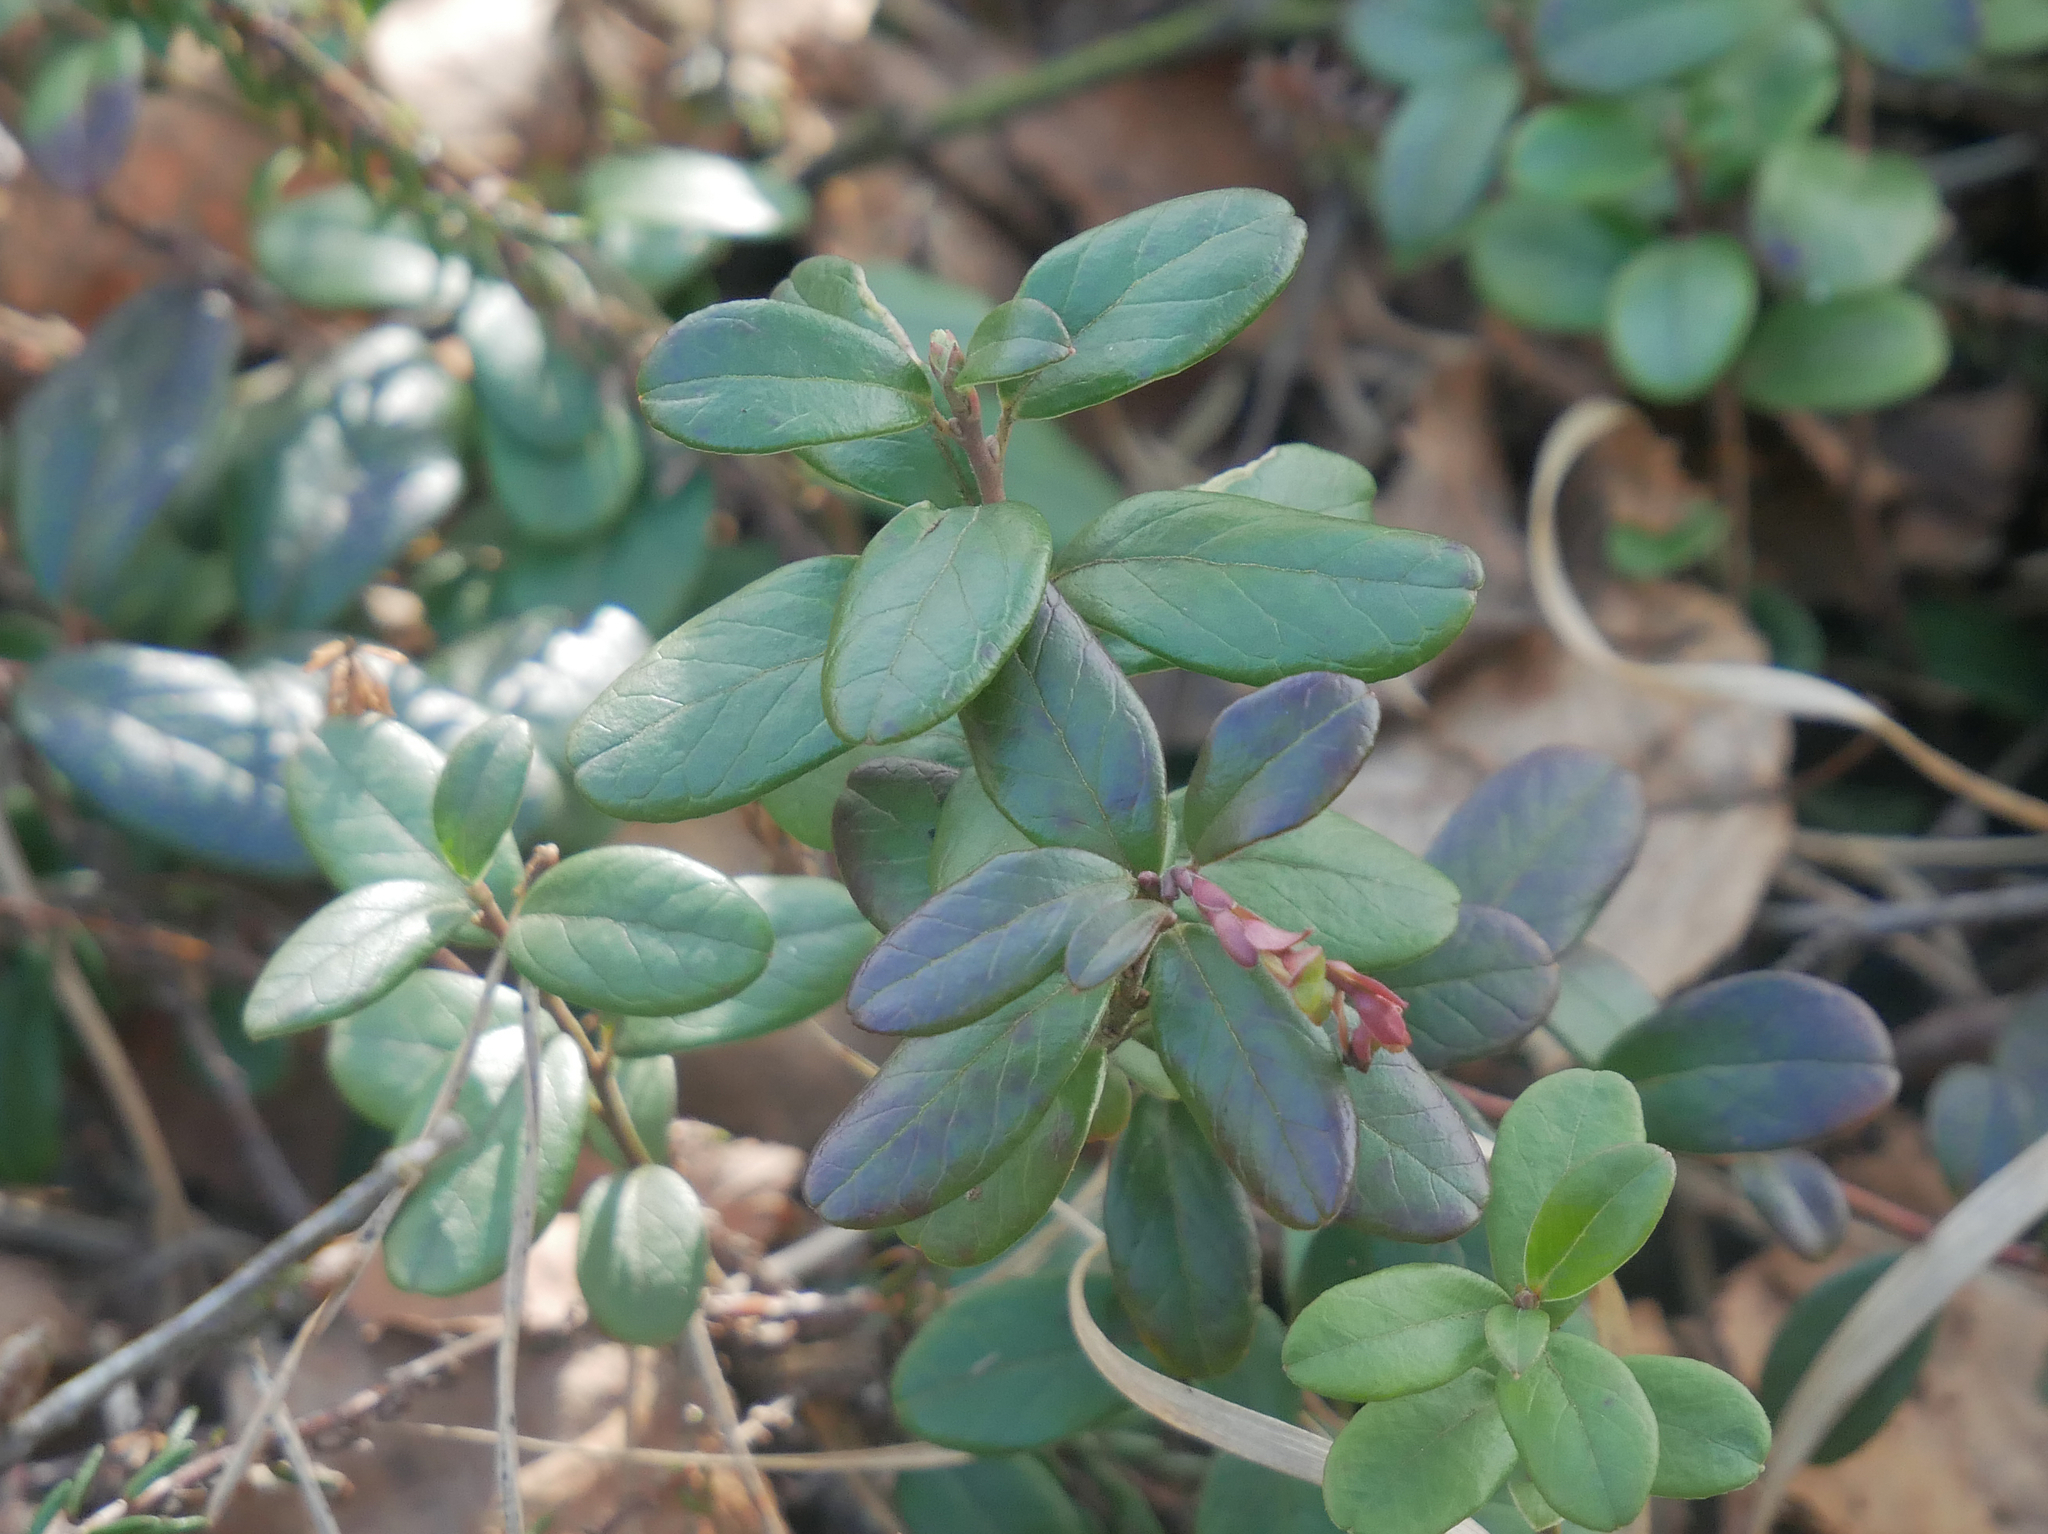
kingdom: Plantae
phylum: Tracheophyta
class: Magnoliopsida
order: Ericales
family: Ericaceae
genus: Vaccinium
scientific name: Vaccinium vitis-idaea
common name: Cowberry
